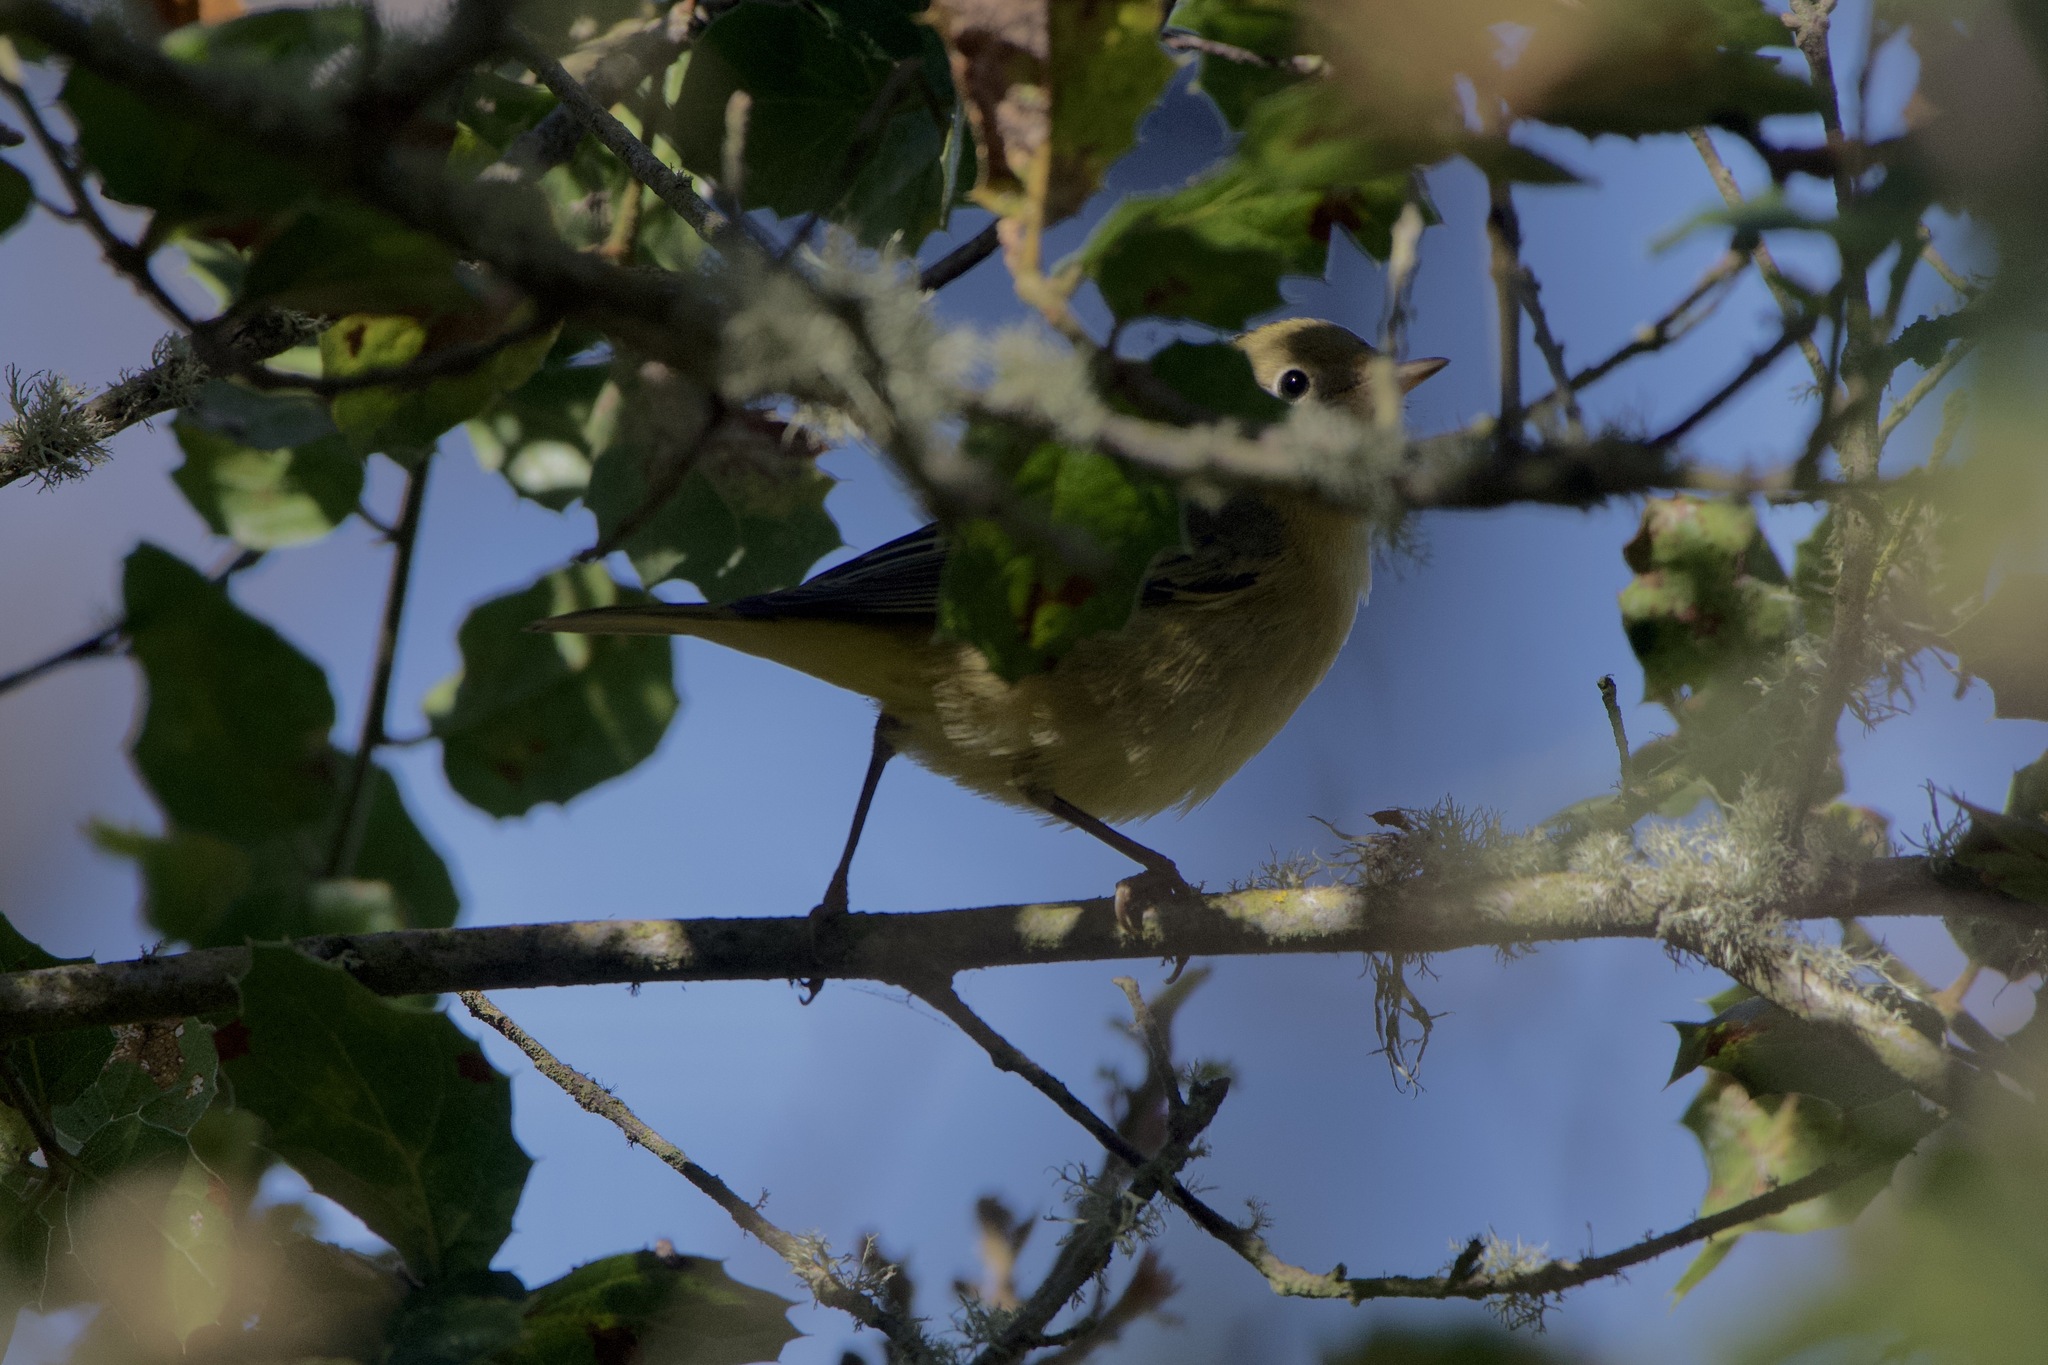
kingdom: Animalia
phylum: Chordata
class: Aves
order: Passeriformes
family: Parulidae
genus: Setophaga
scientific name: Setophaga petechia
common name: Yellow warbler
